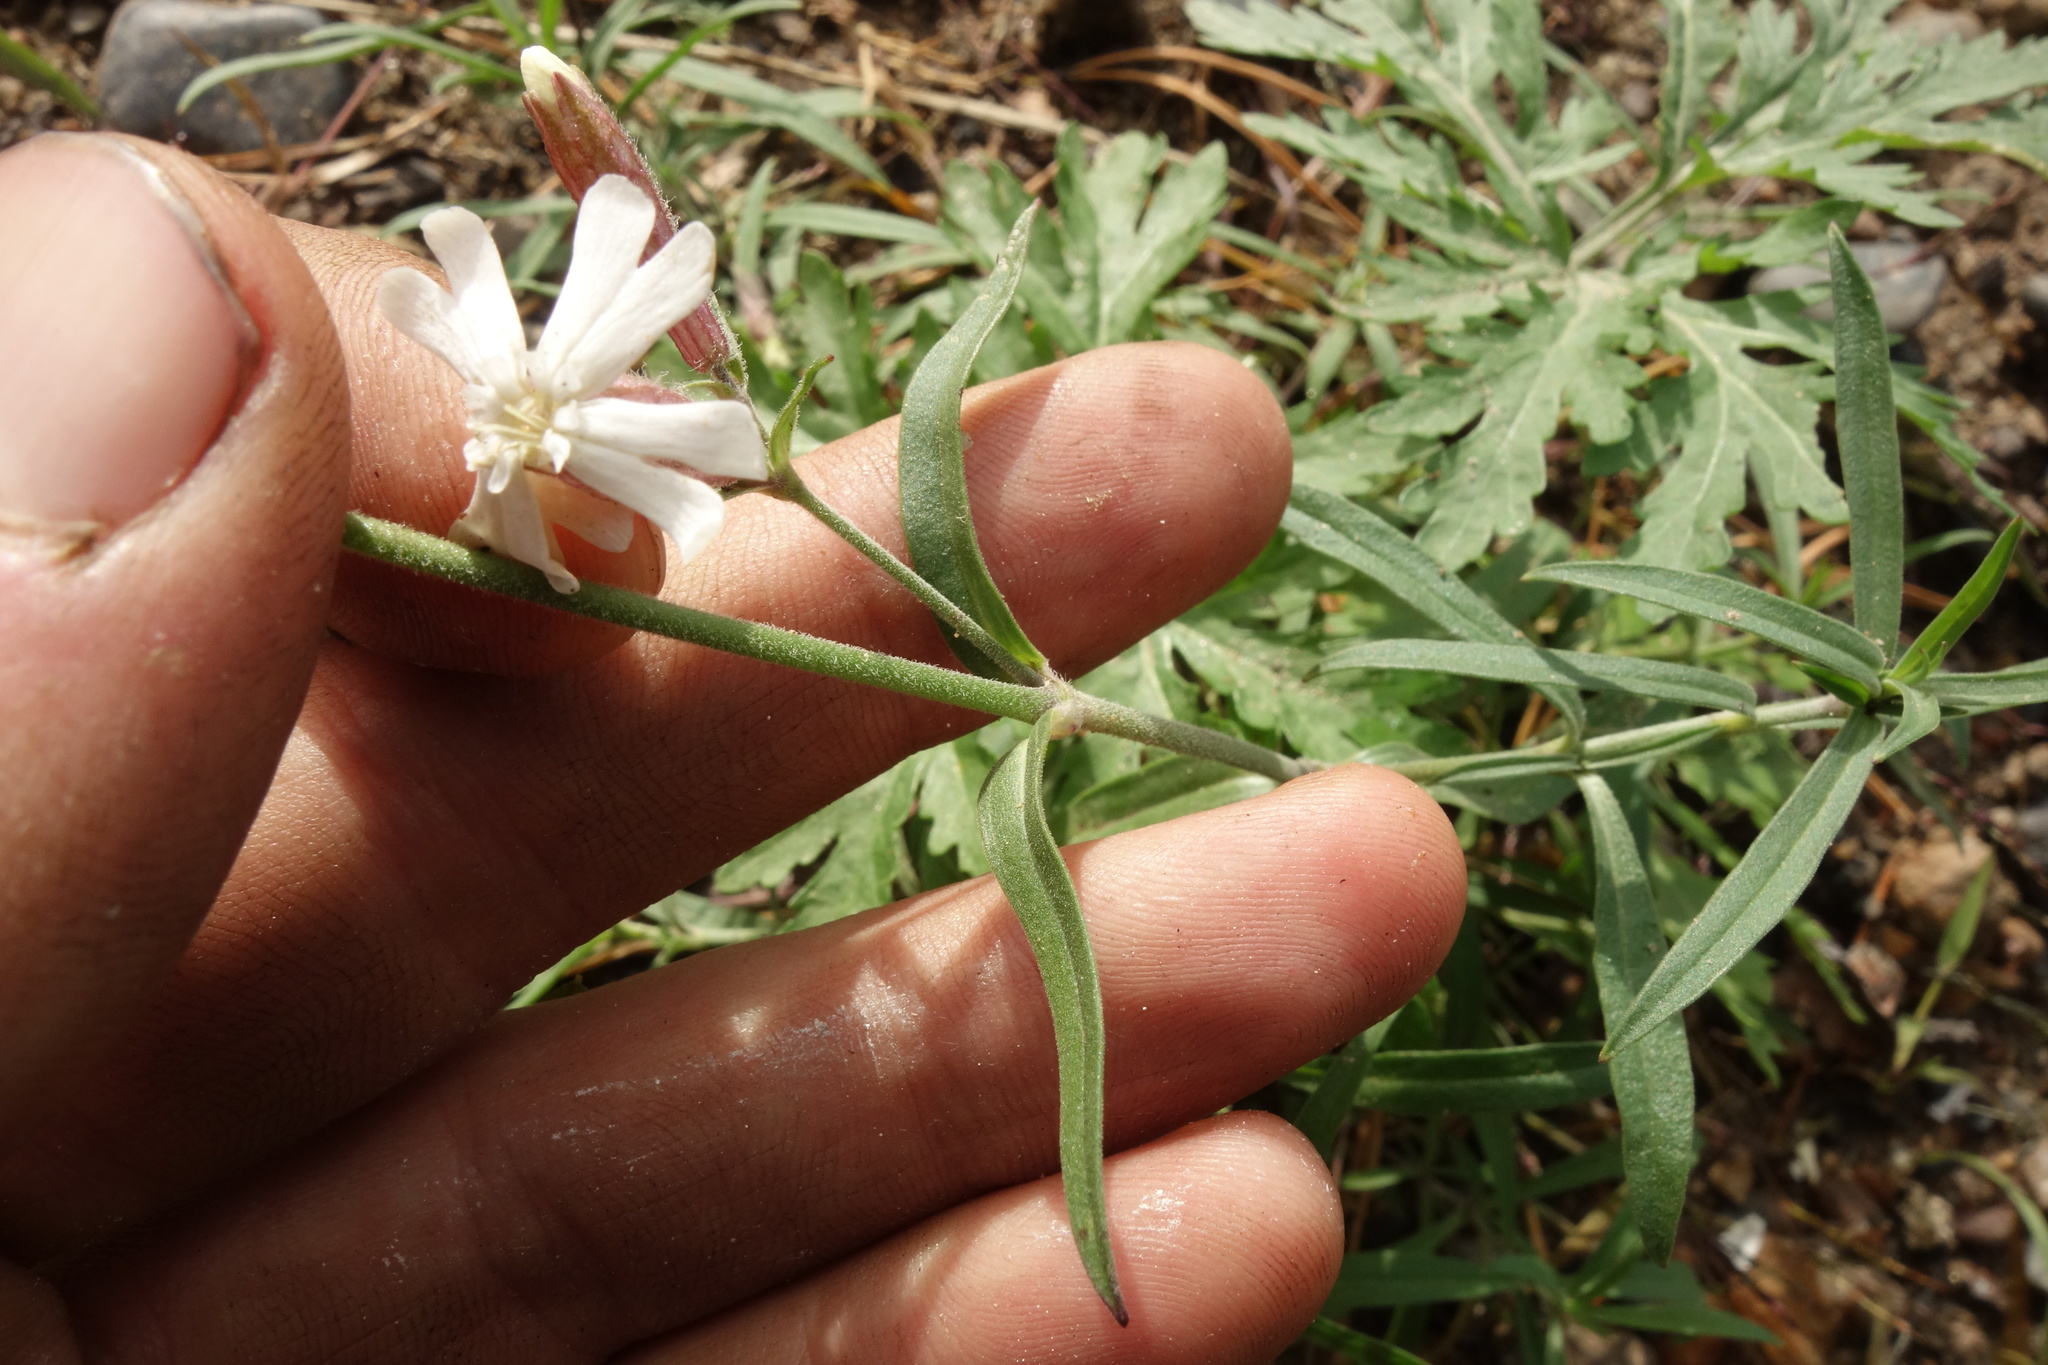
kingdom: Plantae
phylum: Tracheophyta
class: Magnoliopsida
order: Caryophyllales
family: Caryophyllaceae
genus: Silene
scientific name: Silene amoena
